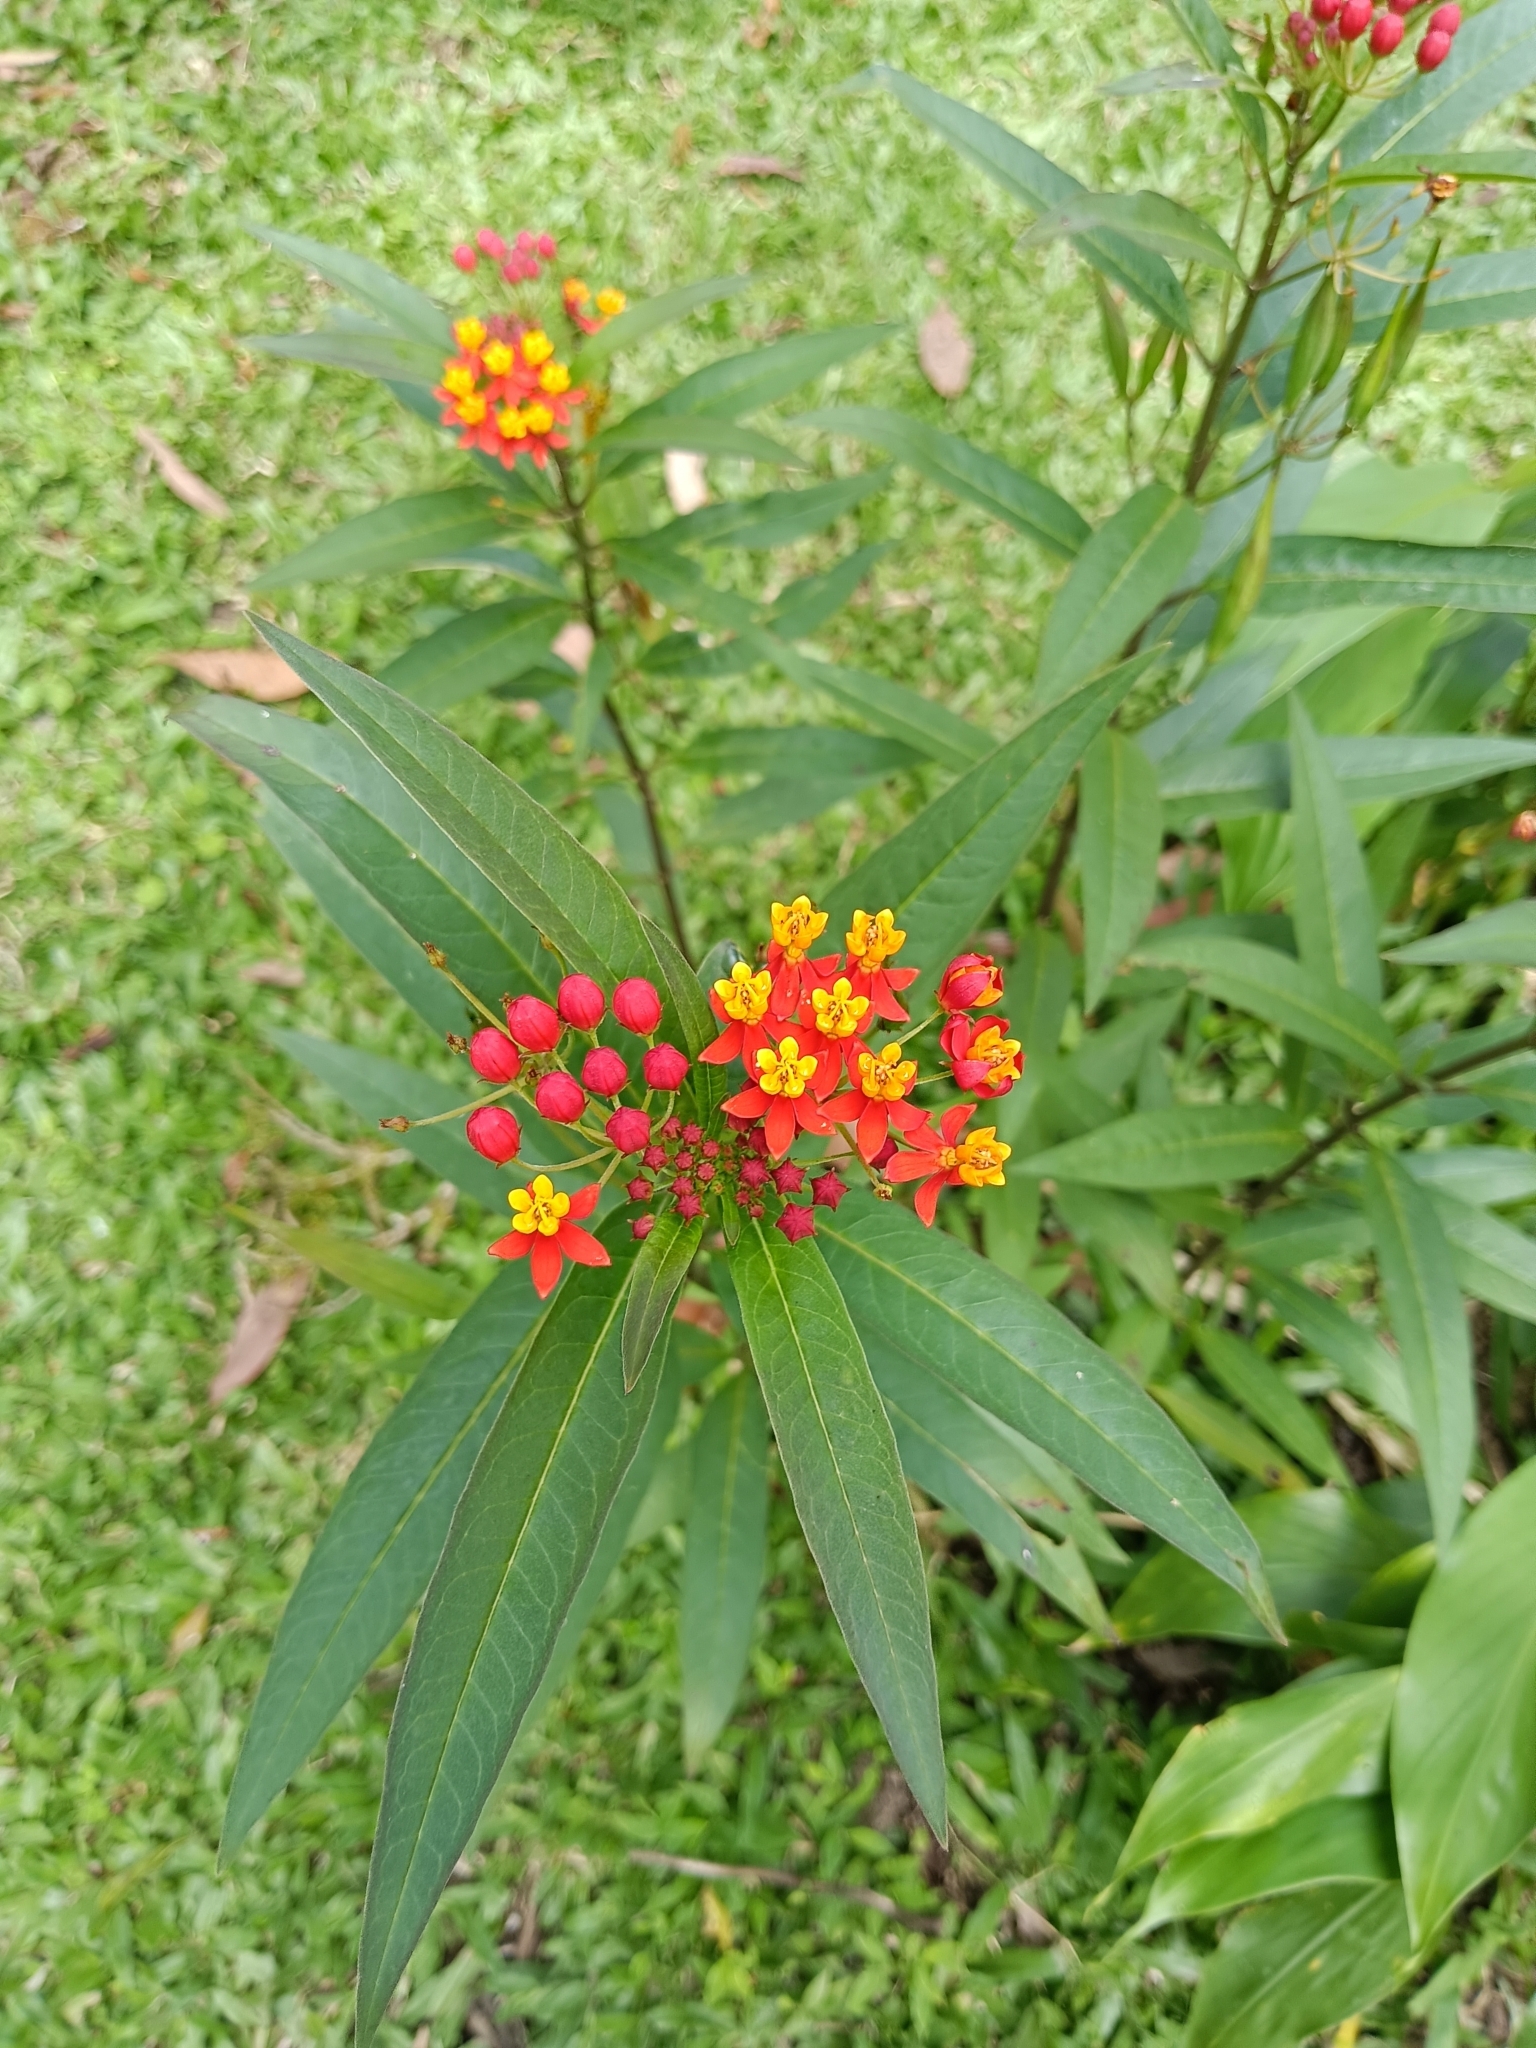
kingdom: Plantae
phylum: Tracheophyta
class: Magnoliopsida
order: Gentianales
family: Apocynaceae
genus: Asclepias
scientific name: Asclepias curassavica
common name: Bloodflower
